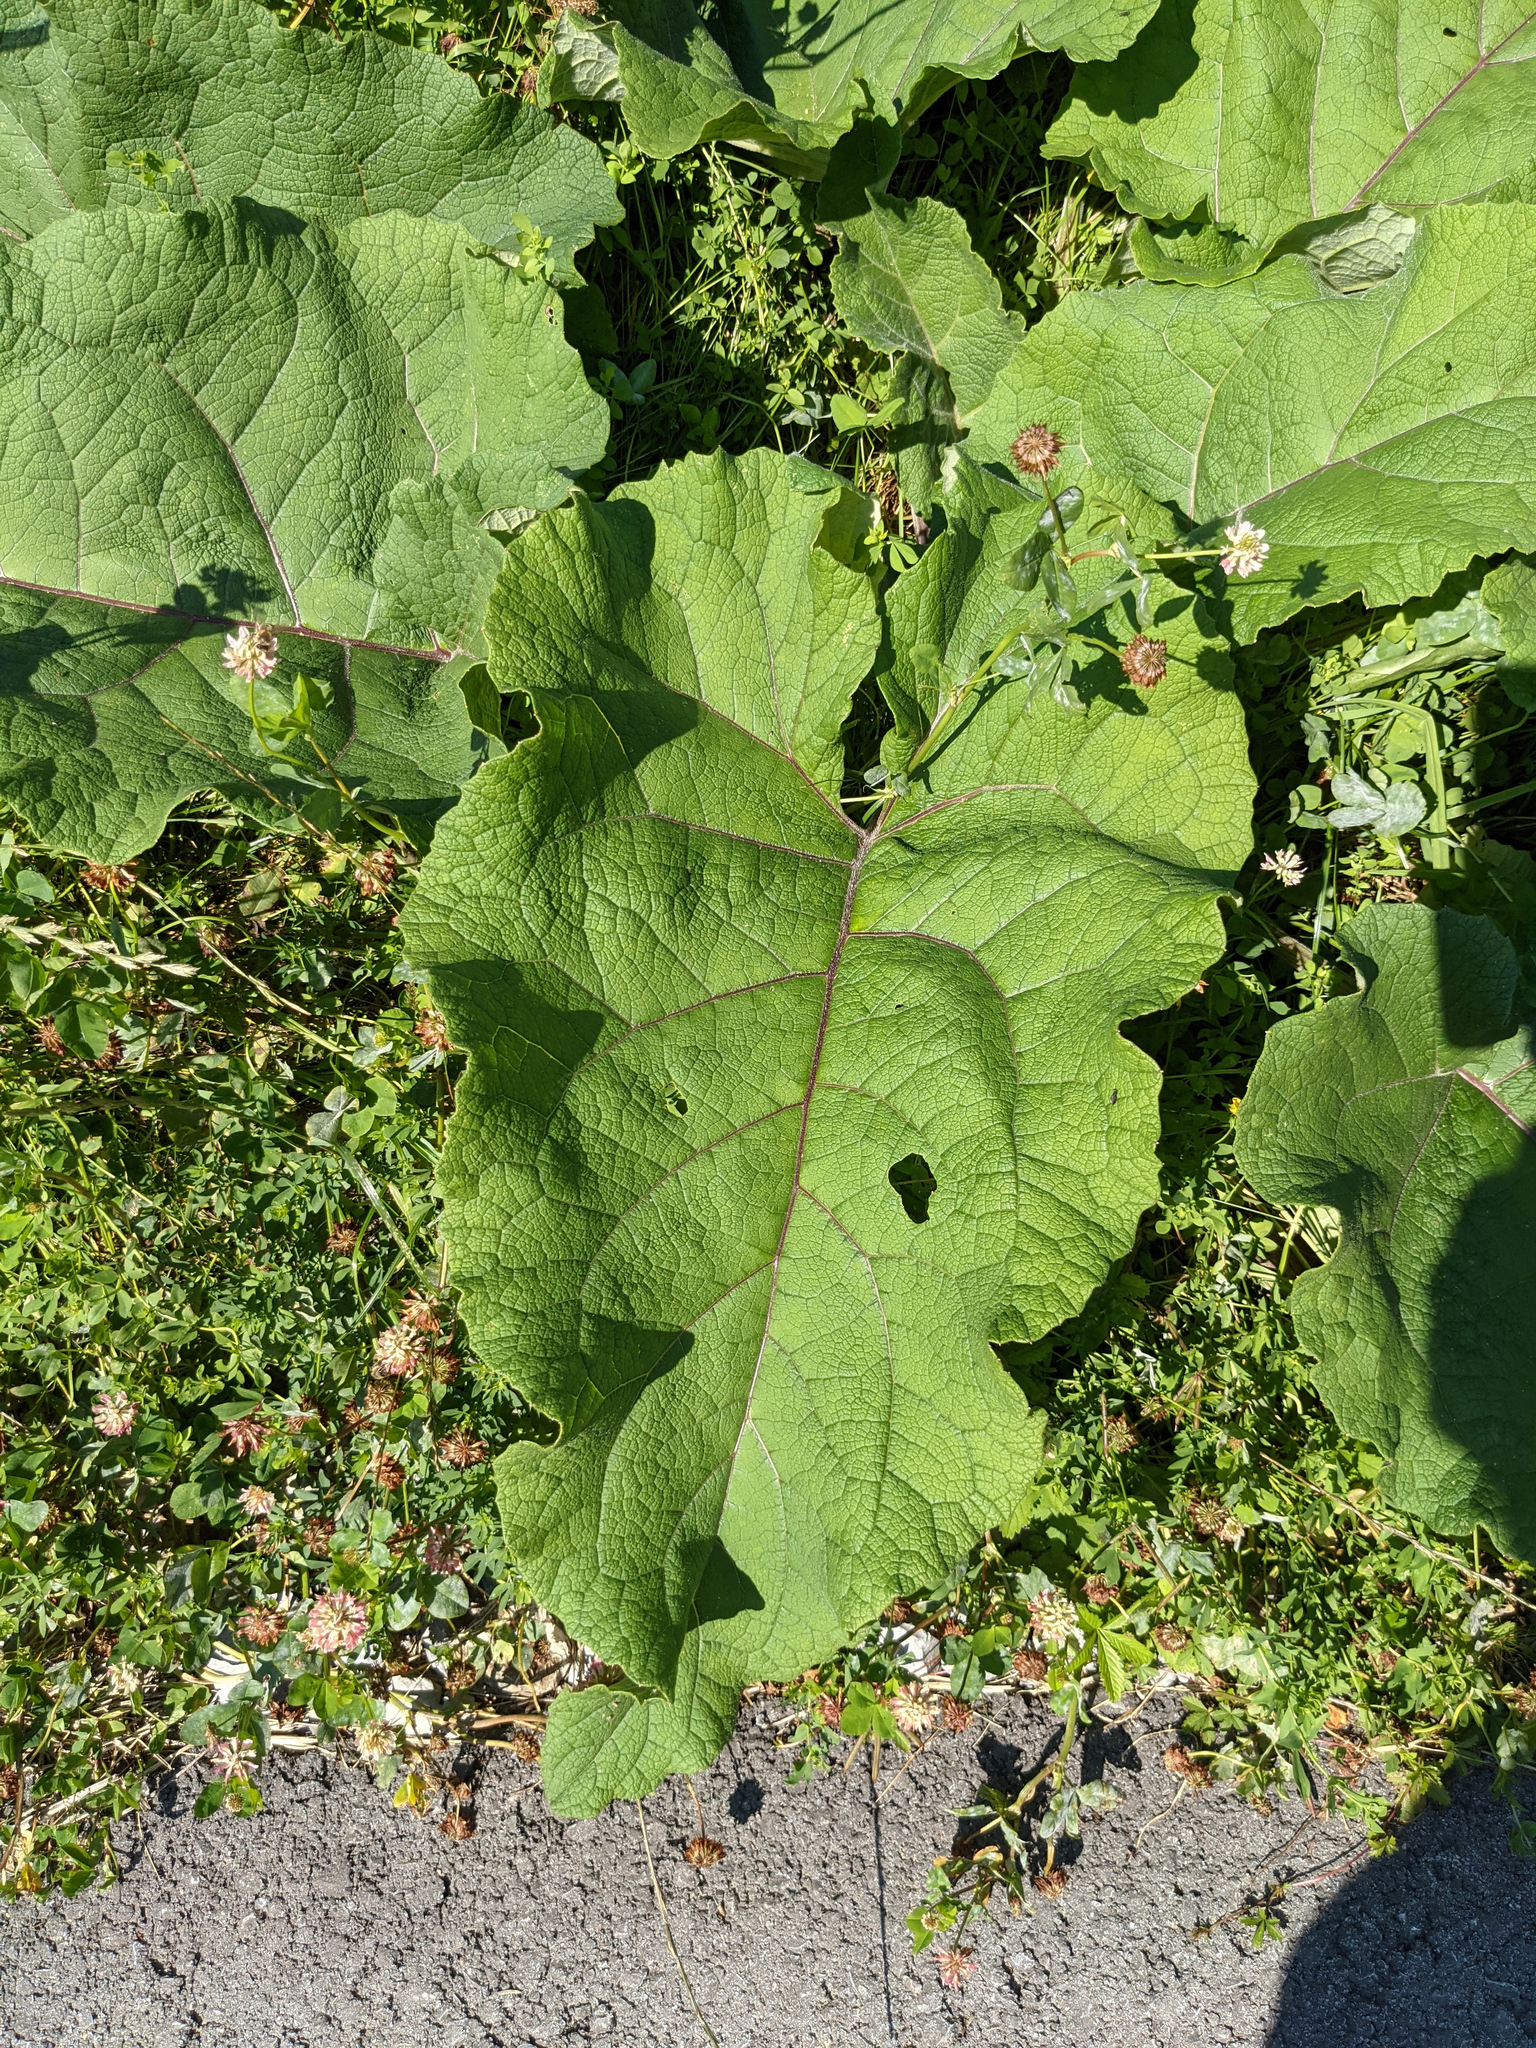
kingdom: Plantae
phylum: Tracheophyta
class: Magnoliopsida
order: Asterales
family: Asteraceae
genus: Arctium
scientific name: Arctium lappa
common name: Greater burdock
